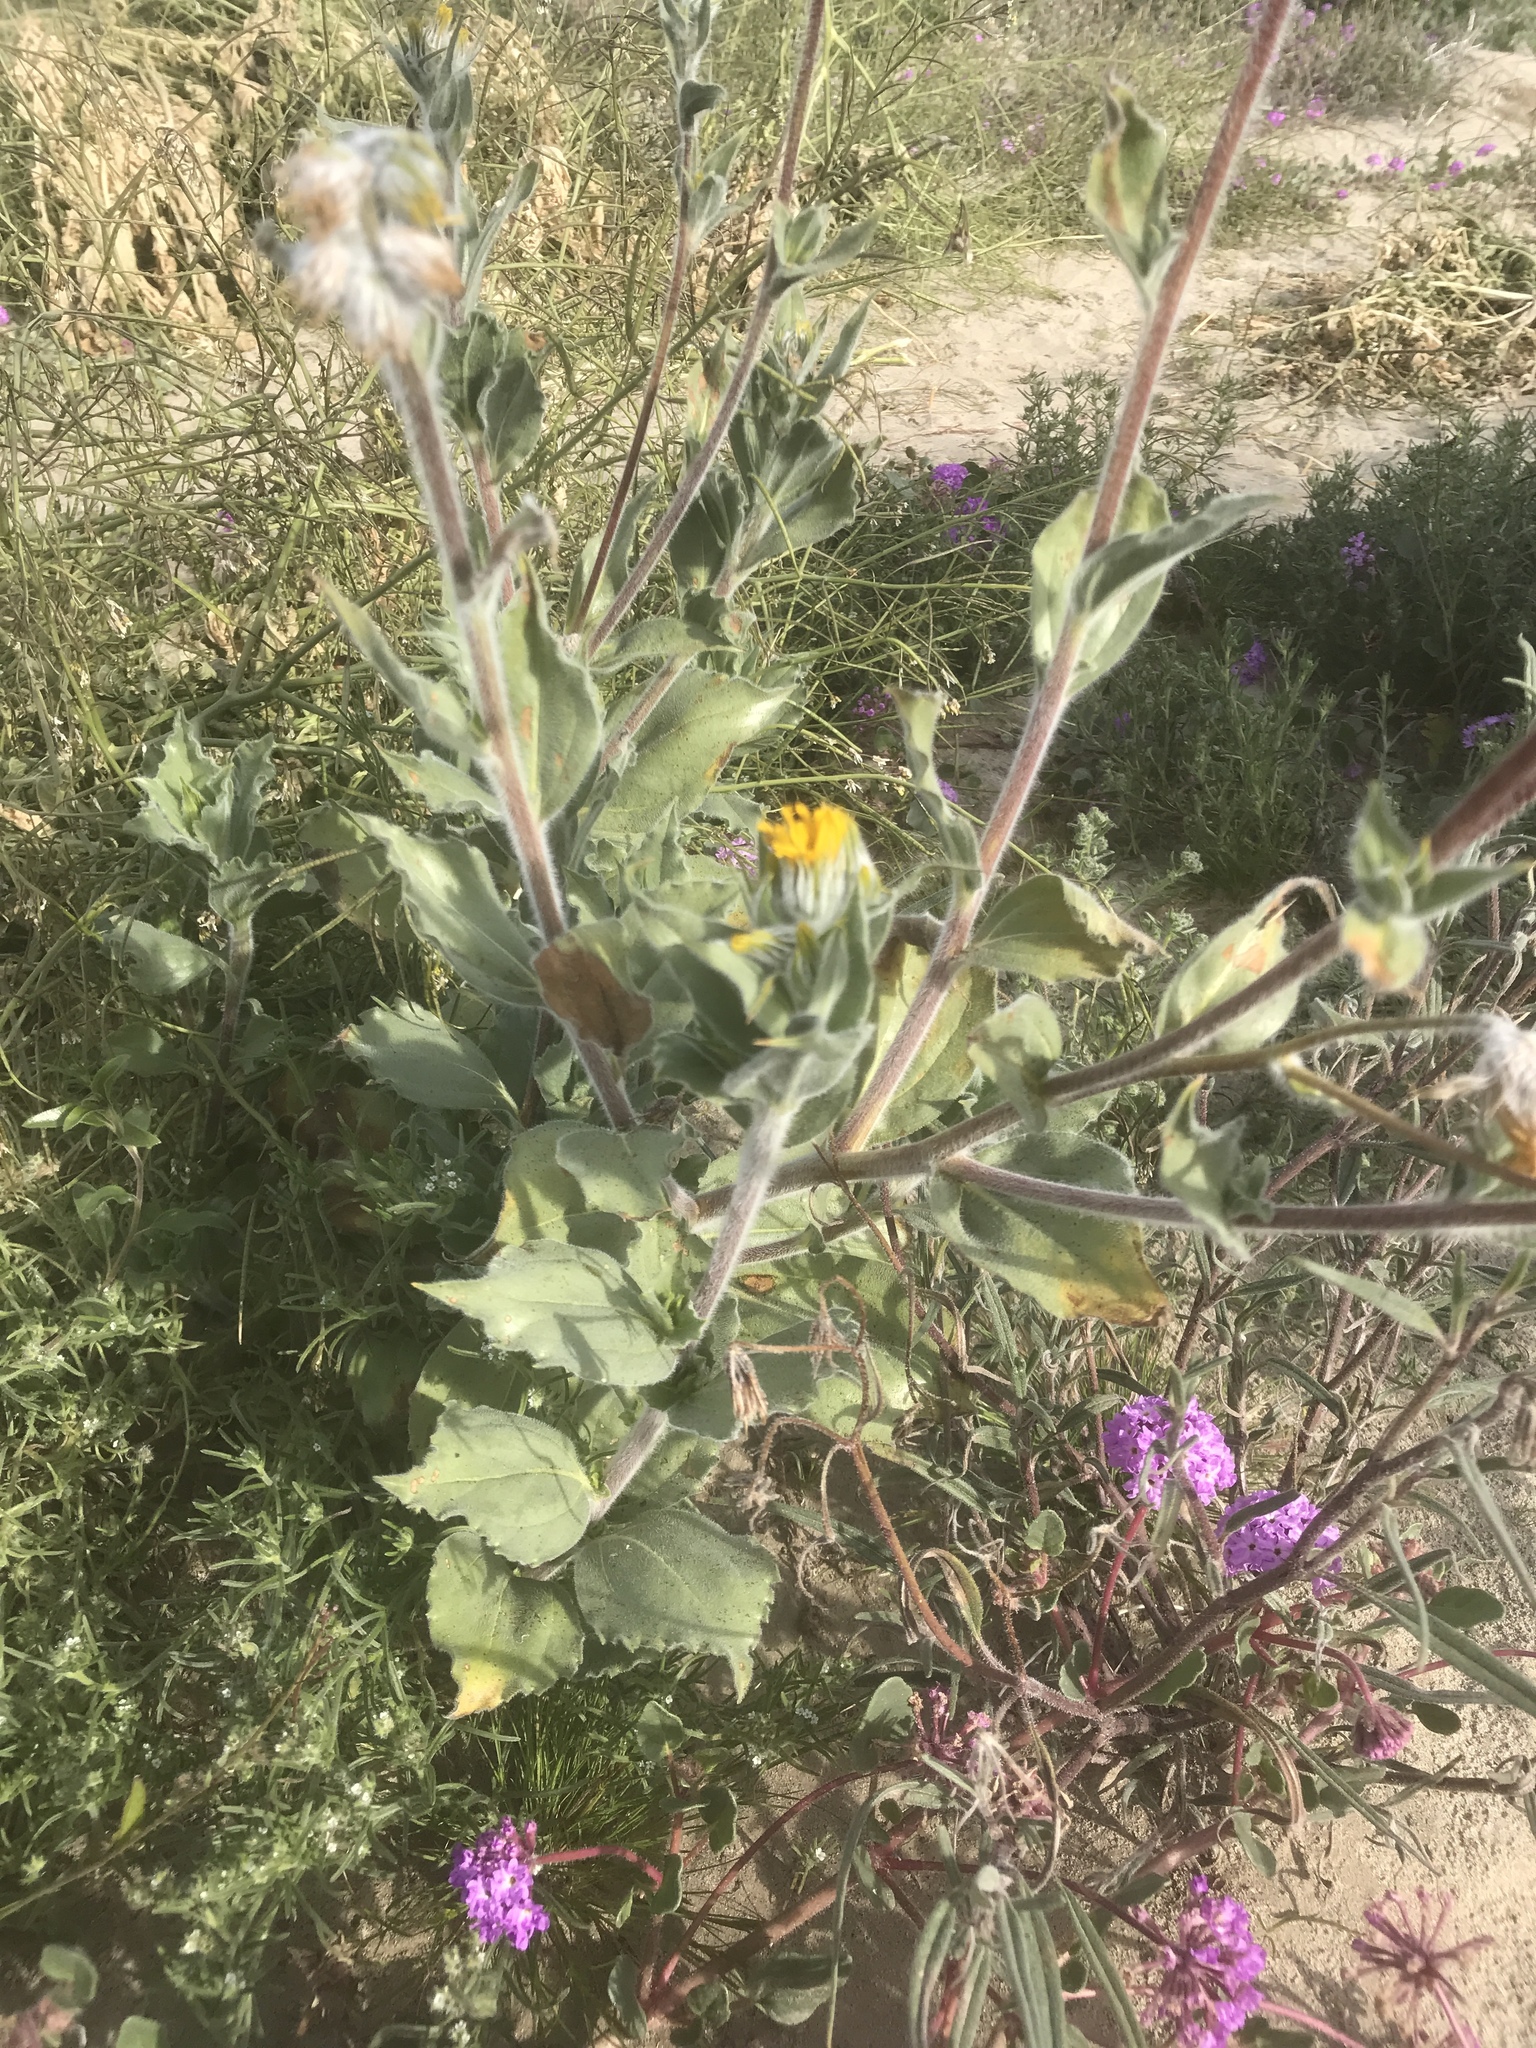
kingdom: Plantae
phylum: Tracheophyta
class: Magnoliopsida
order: Asterales
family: Asteraceae
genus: Geraea
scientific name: Geraea canescens
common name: Desert-gold
